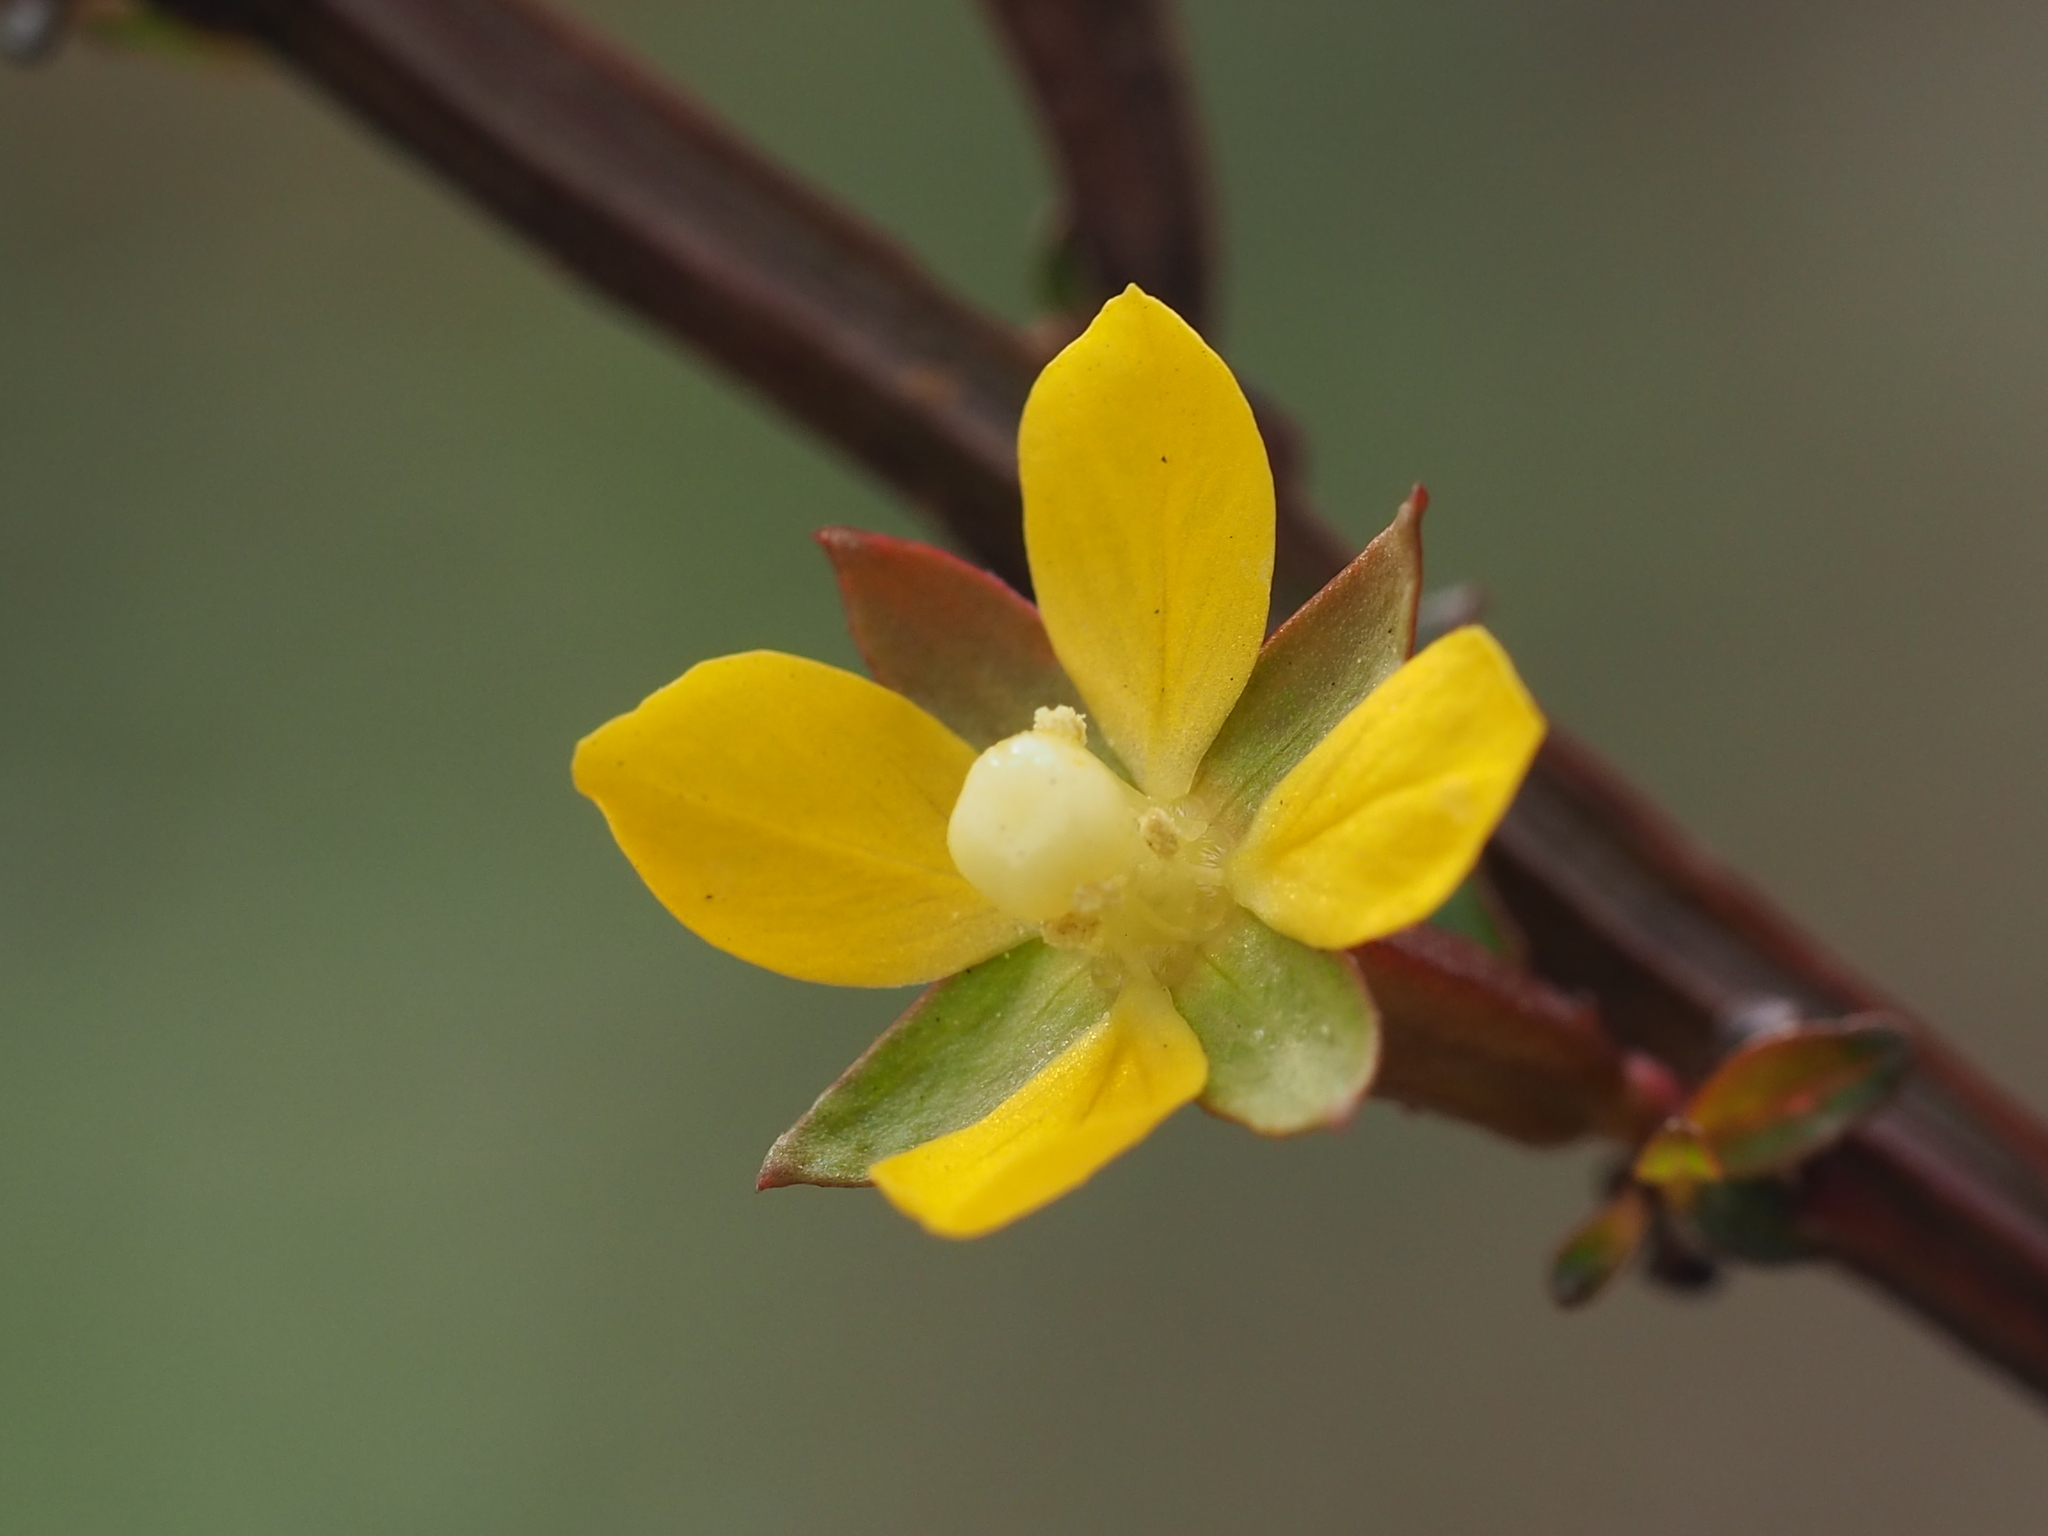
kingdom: Plantae
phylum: Tracheophyta
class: Magnoliopsida
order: Myrtales
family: Onagraceae
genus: Ludwigia
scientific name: Ludwigia erecta
